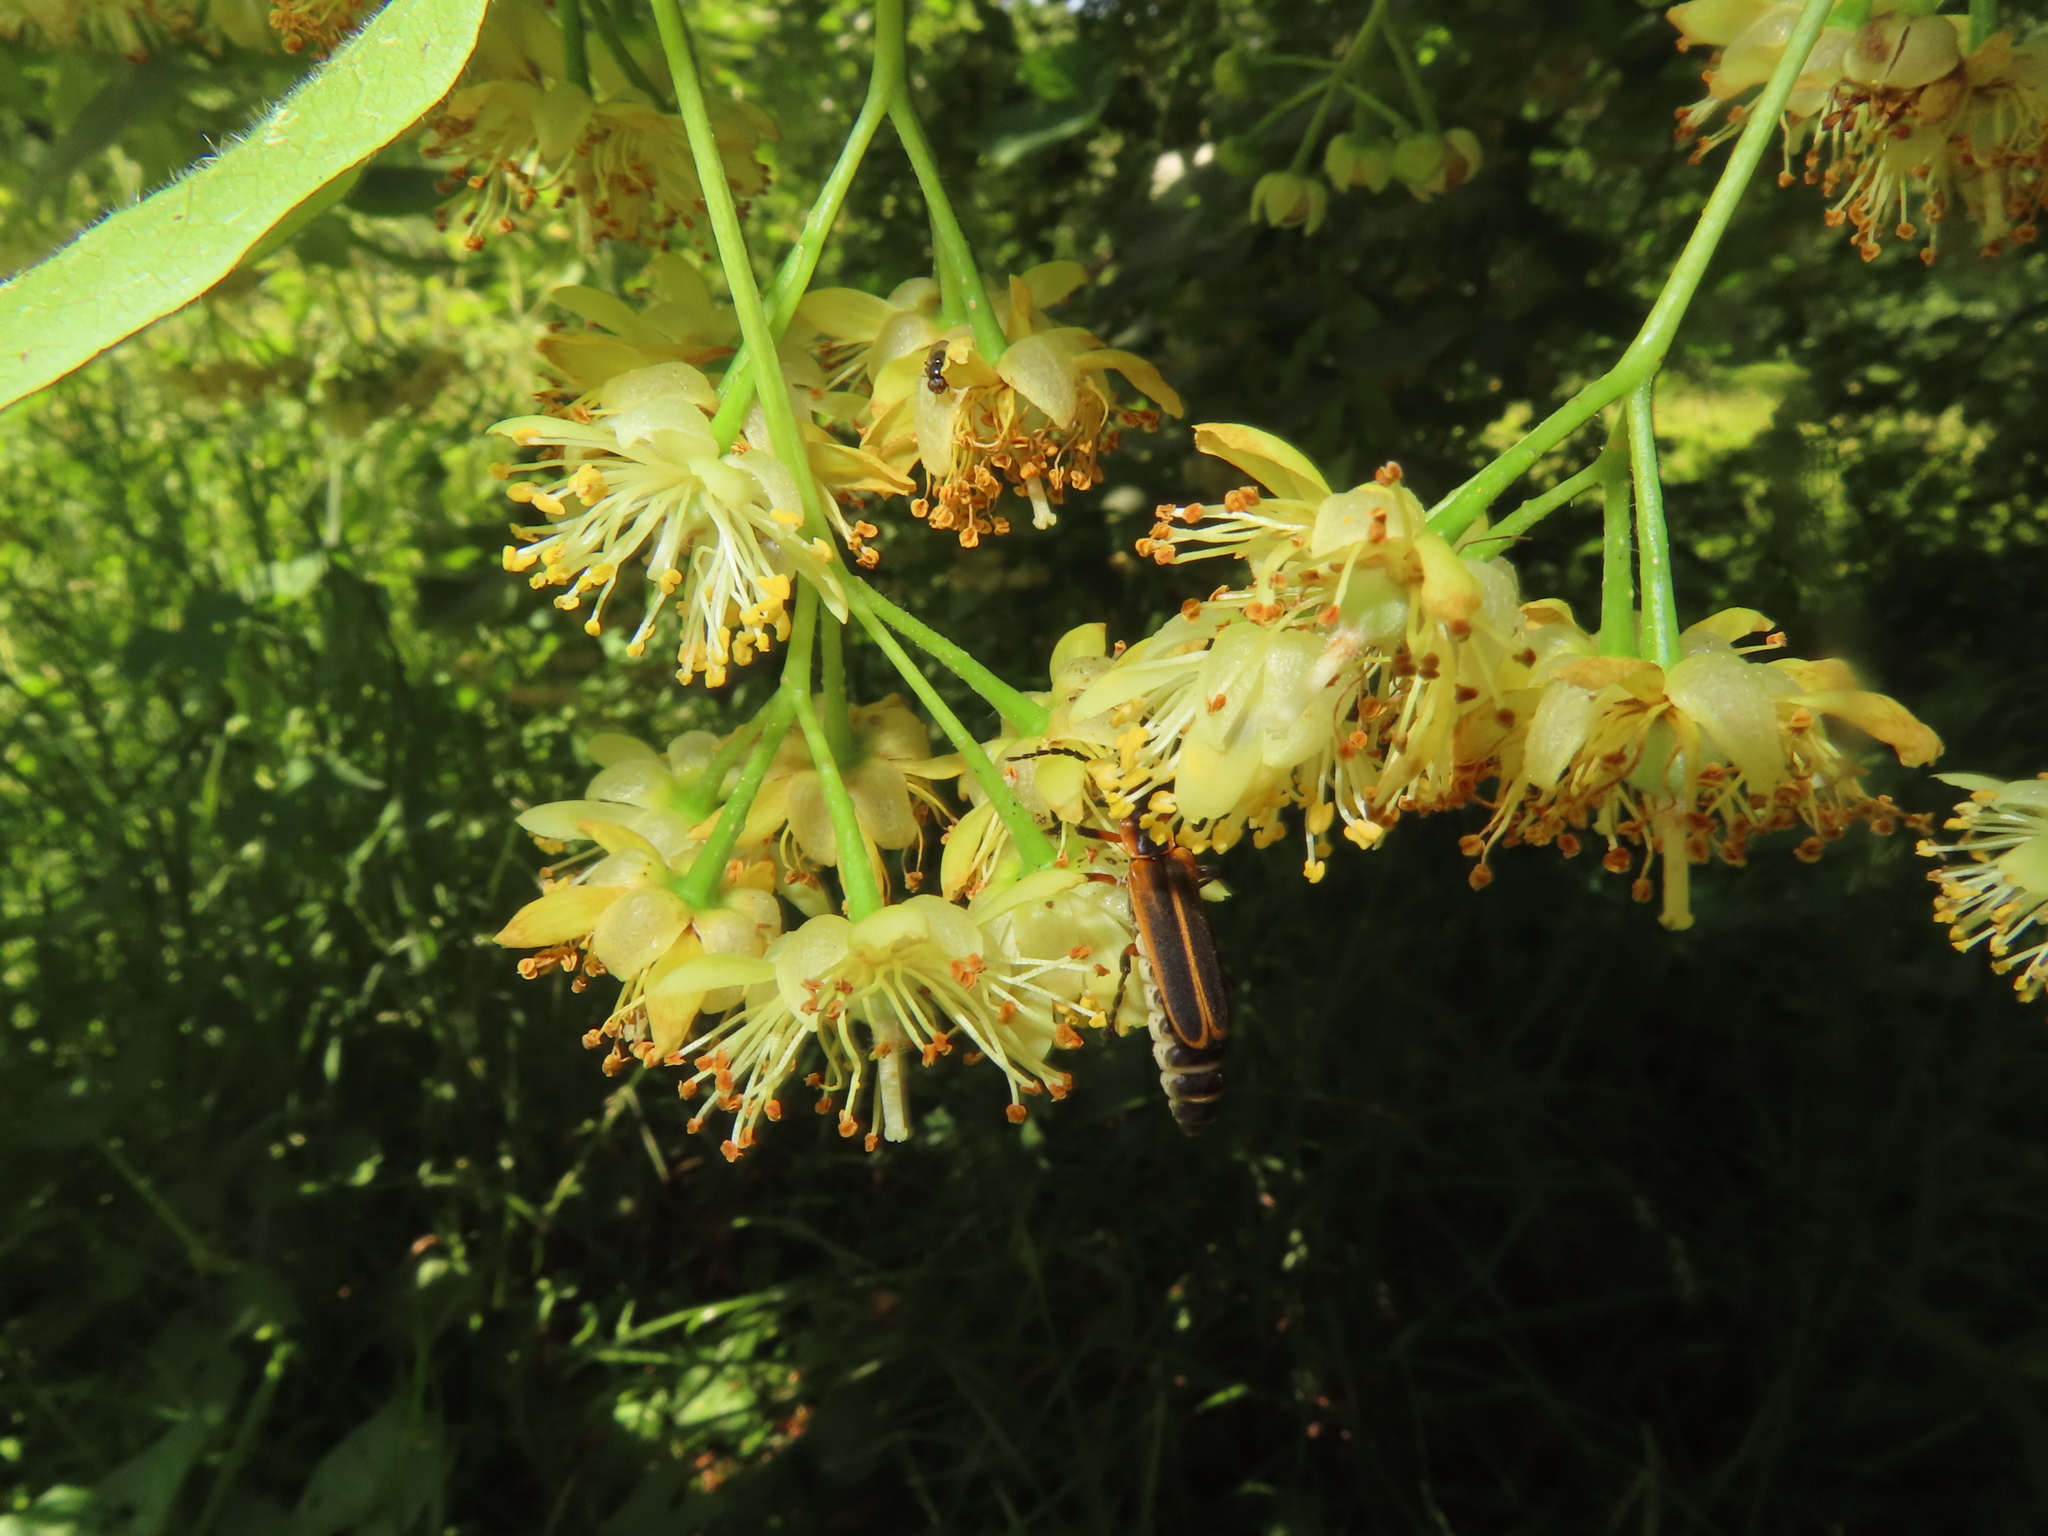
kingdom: Animalia
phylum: Arthropoda
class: Insecta
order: Coleoptera
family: Cantharidae
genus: Chauliognathus
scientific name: Chauliognathus marginatus
